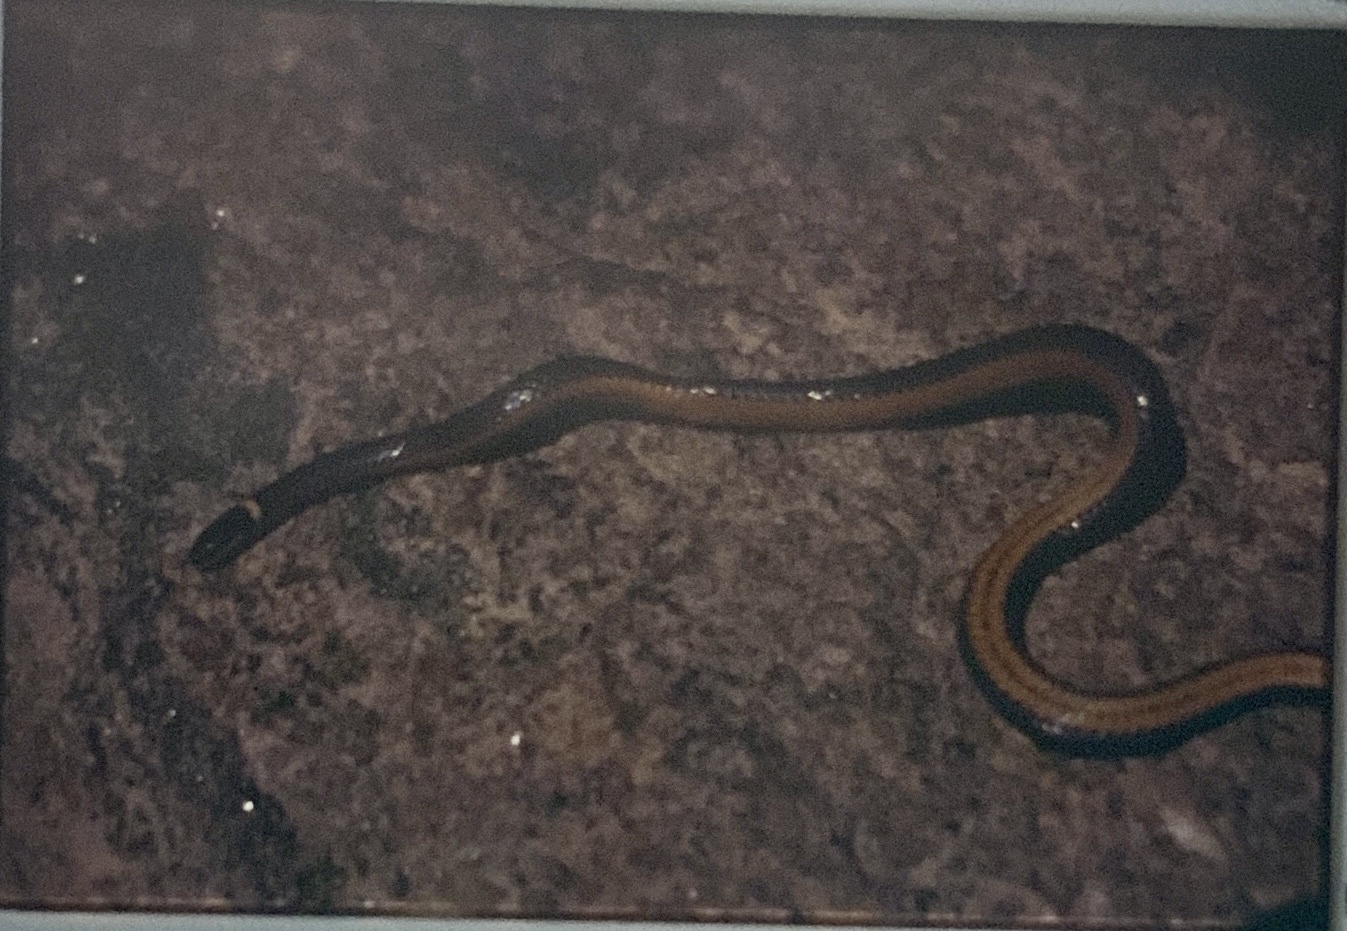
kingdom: Animalia
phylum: Chordata
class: Squamata
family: Colubridae
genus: Diadophis
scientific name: Diadophis punctatus
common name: Ringneck snake
